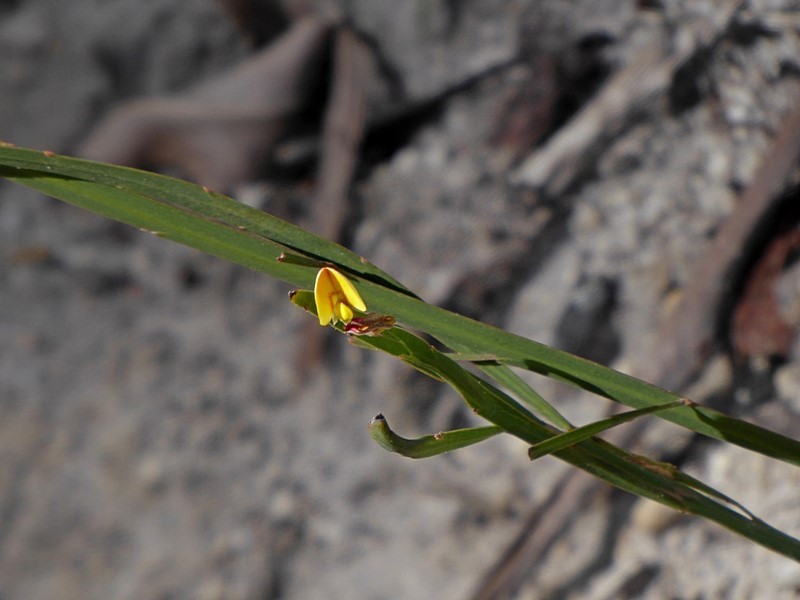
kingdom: Plantae
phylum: Tracheophyta
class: Magnoliopsida
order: Fabales
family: Fabaceae
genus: Bossiaea
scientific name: Bossiaea ensata
